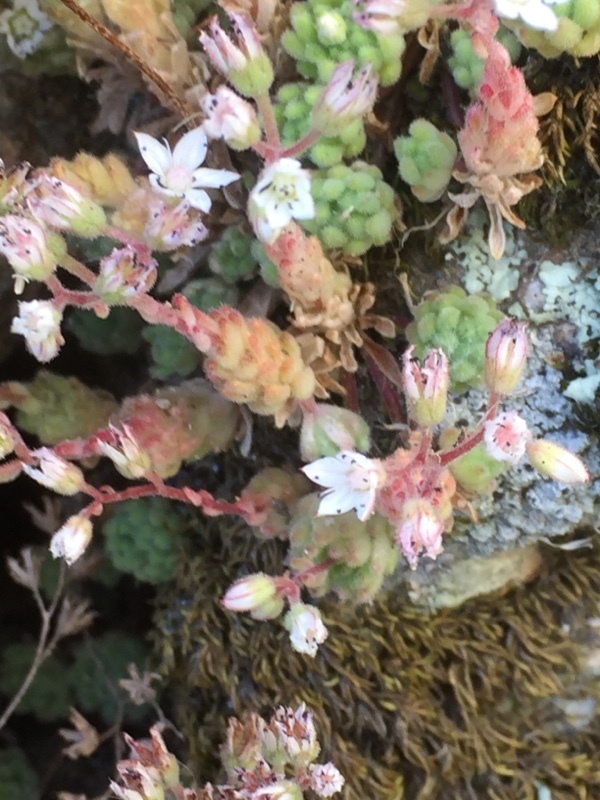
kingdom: Plantae
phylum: Tracheophyta
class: Magnoliopsida
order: Saxifragales
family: Crassulaceae
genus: Sedum
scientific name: Sedum hirsutum
